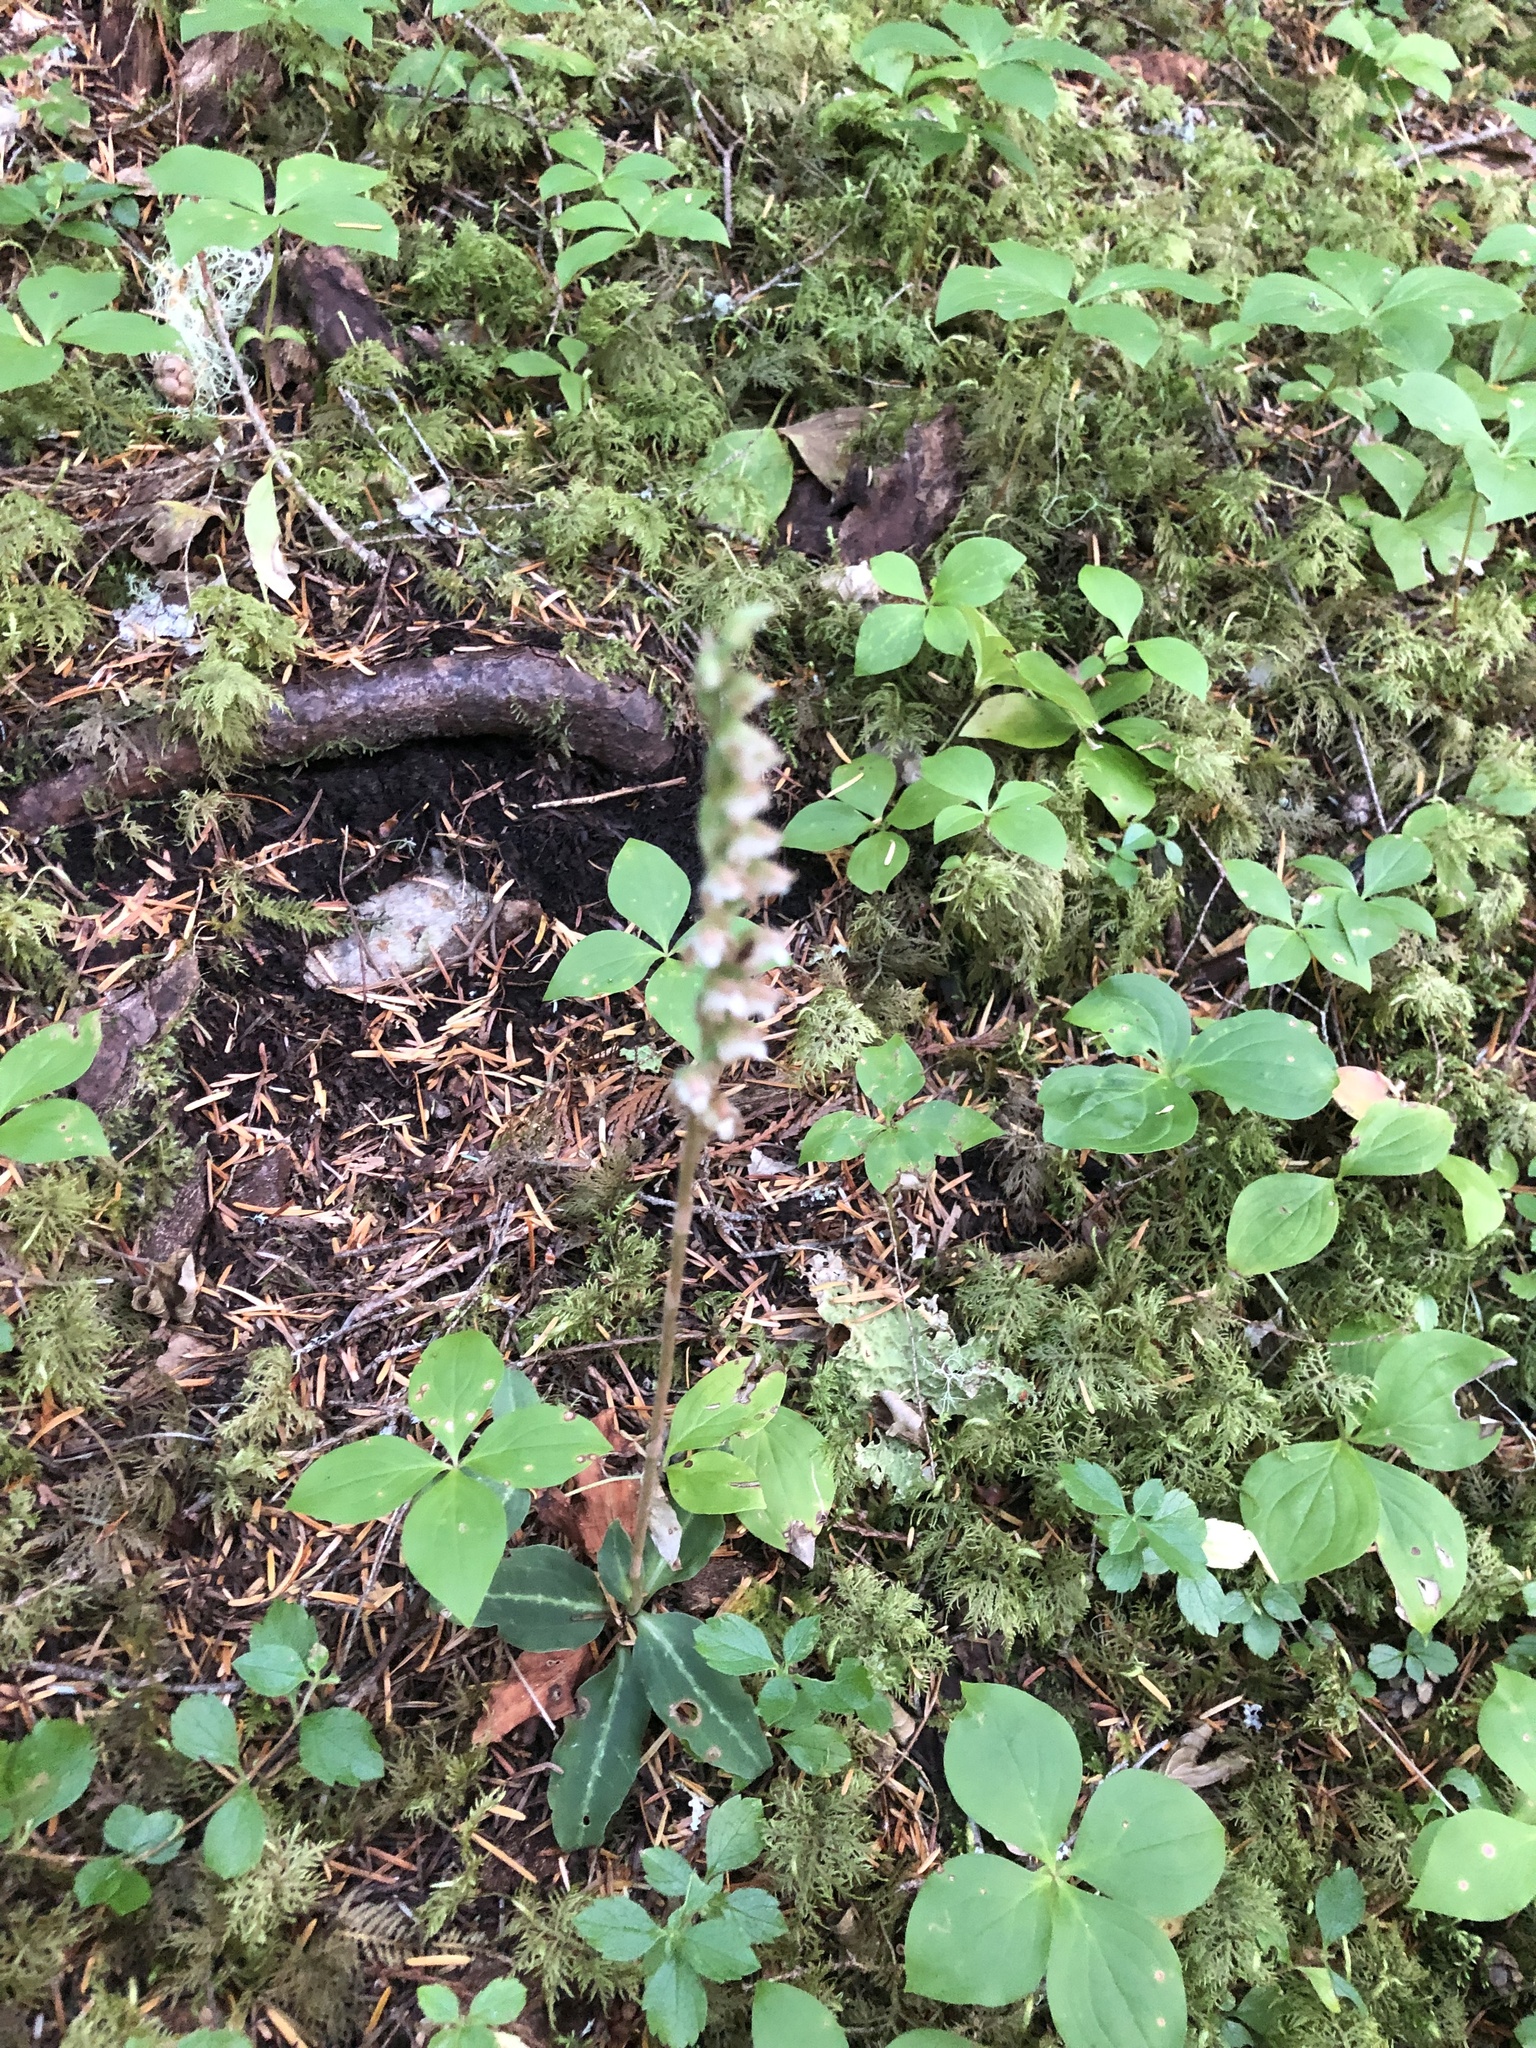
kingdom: Plantae
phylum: Tracheophyta
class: Liliopsida
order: Asparagales
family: Orchidaceae
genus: Goodyera
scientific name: Goodyera oblongifolia
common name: Giant rattlesnake-plantain
